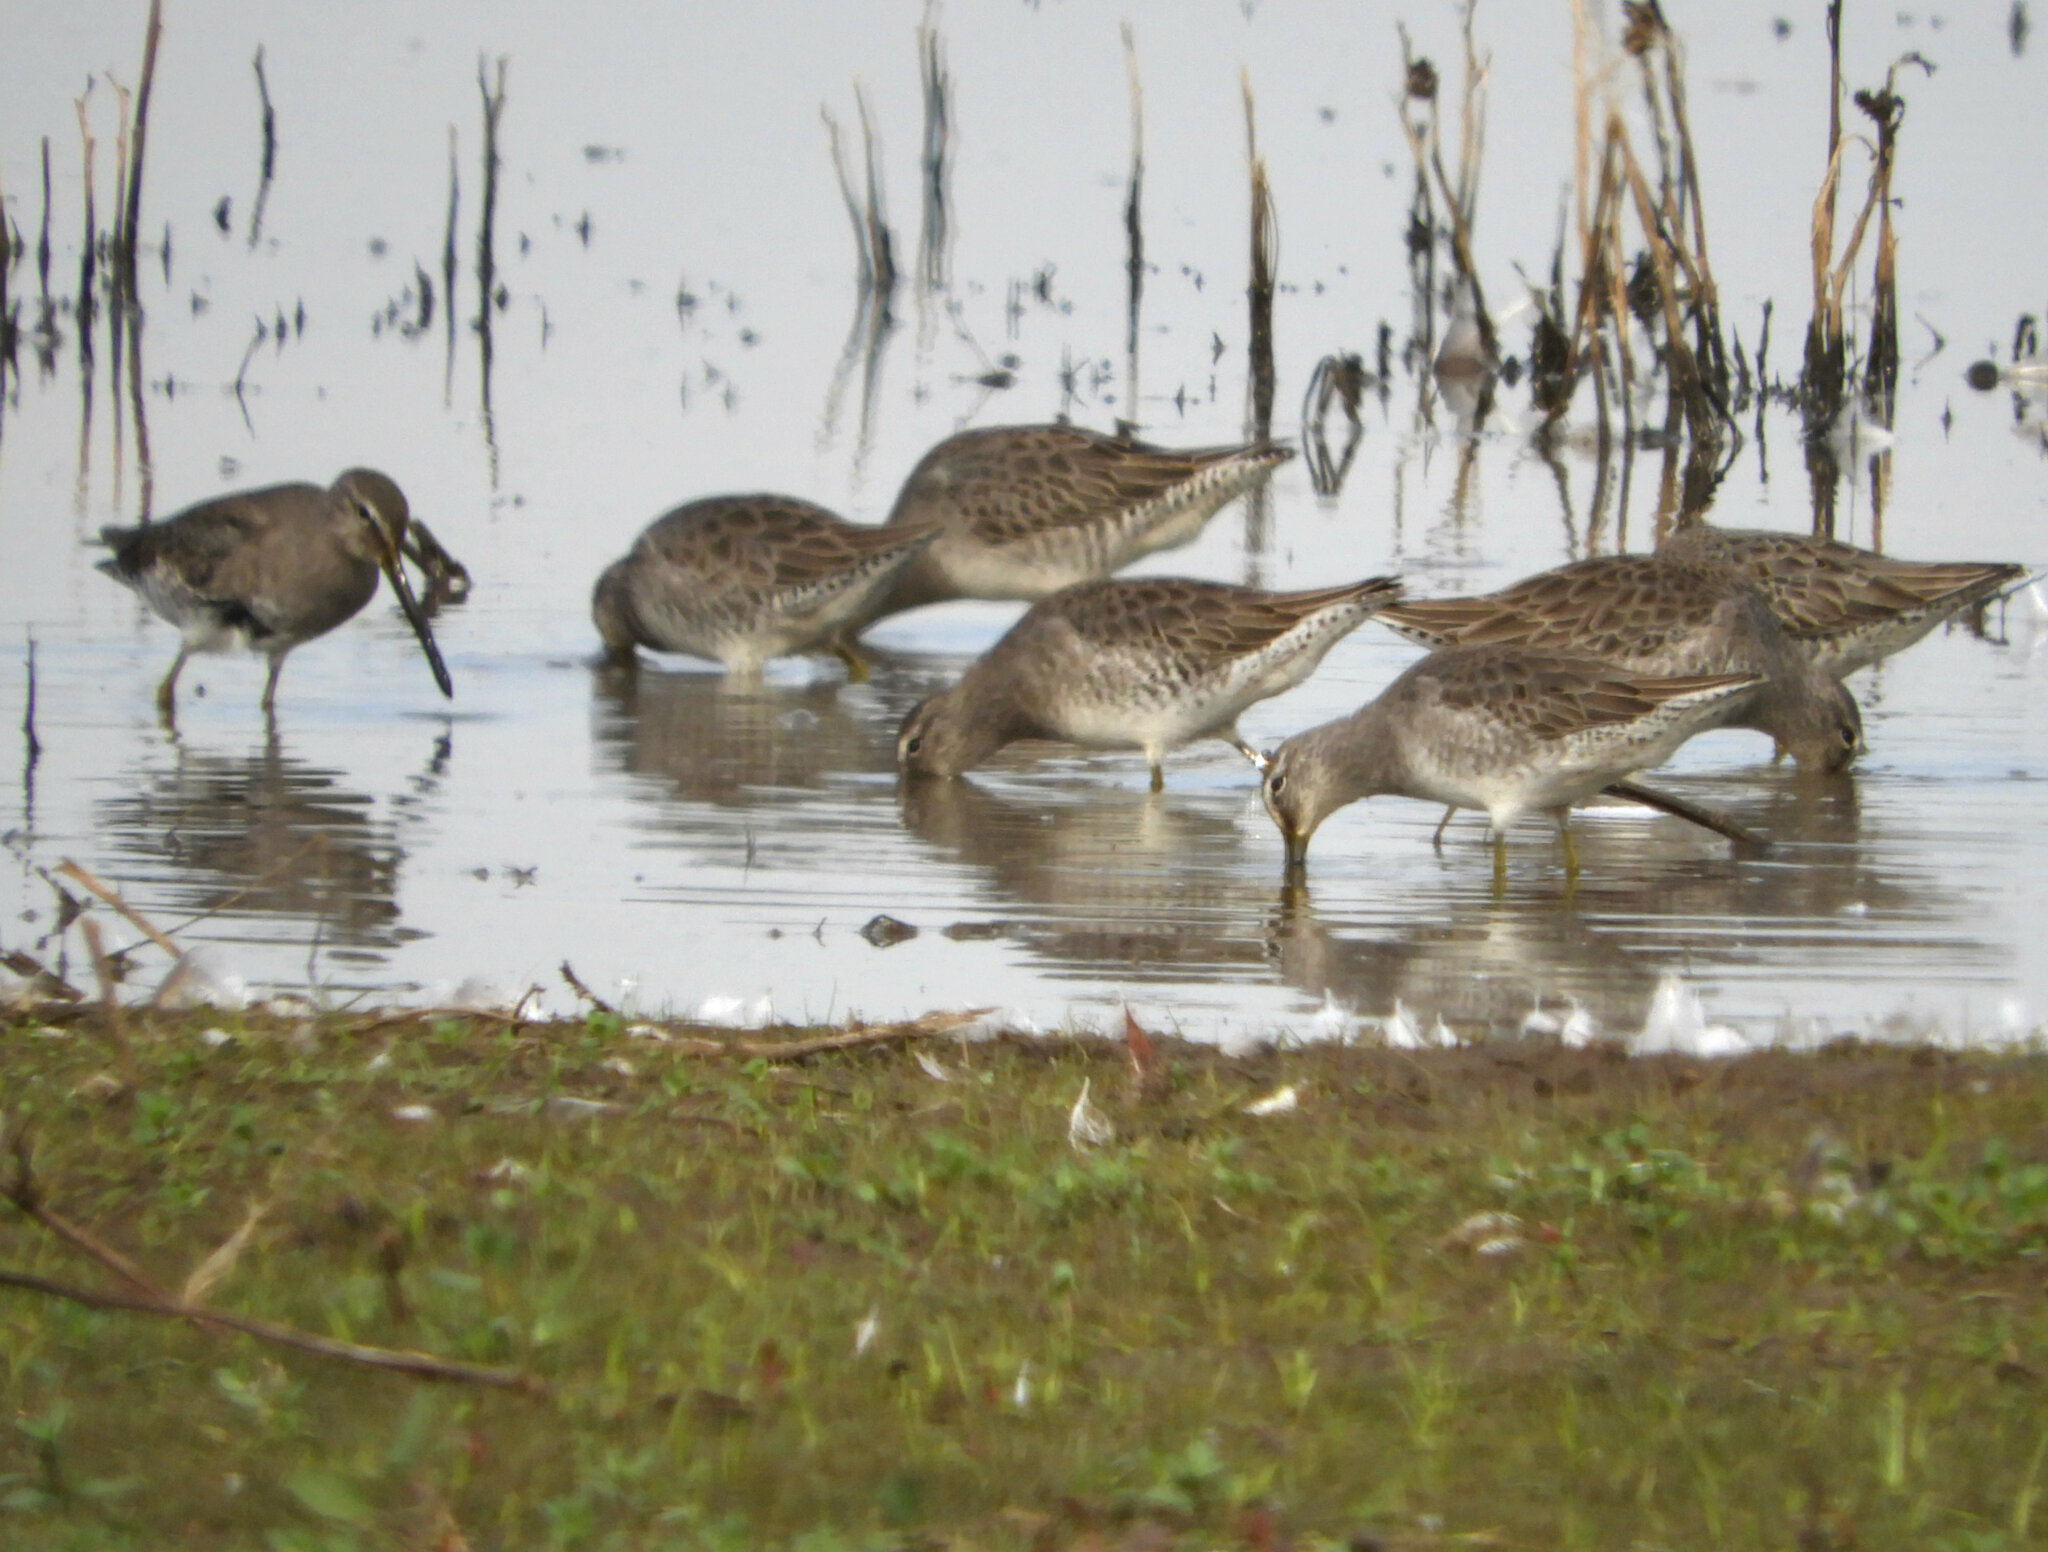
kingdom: Animalia
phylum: Chordata
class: Aves
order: Charadriiformes
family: Scolopacidae
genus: Limnodromus
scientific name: Limnodromus scolopaceus
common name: Long-billed dowitcher
